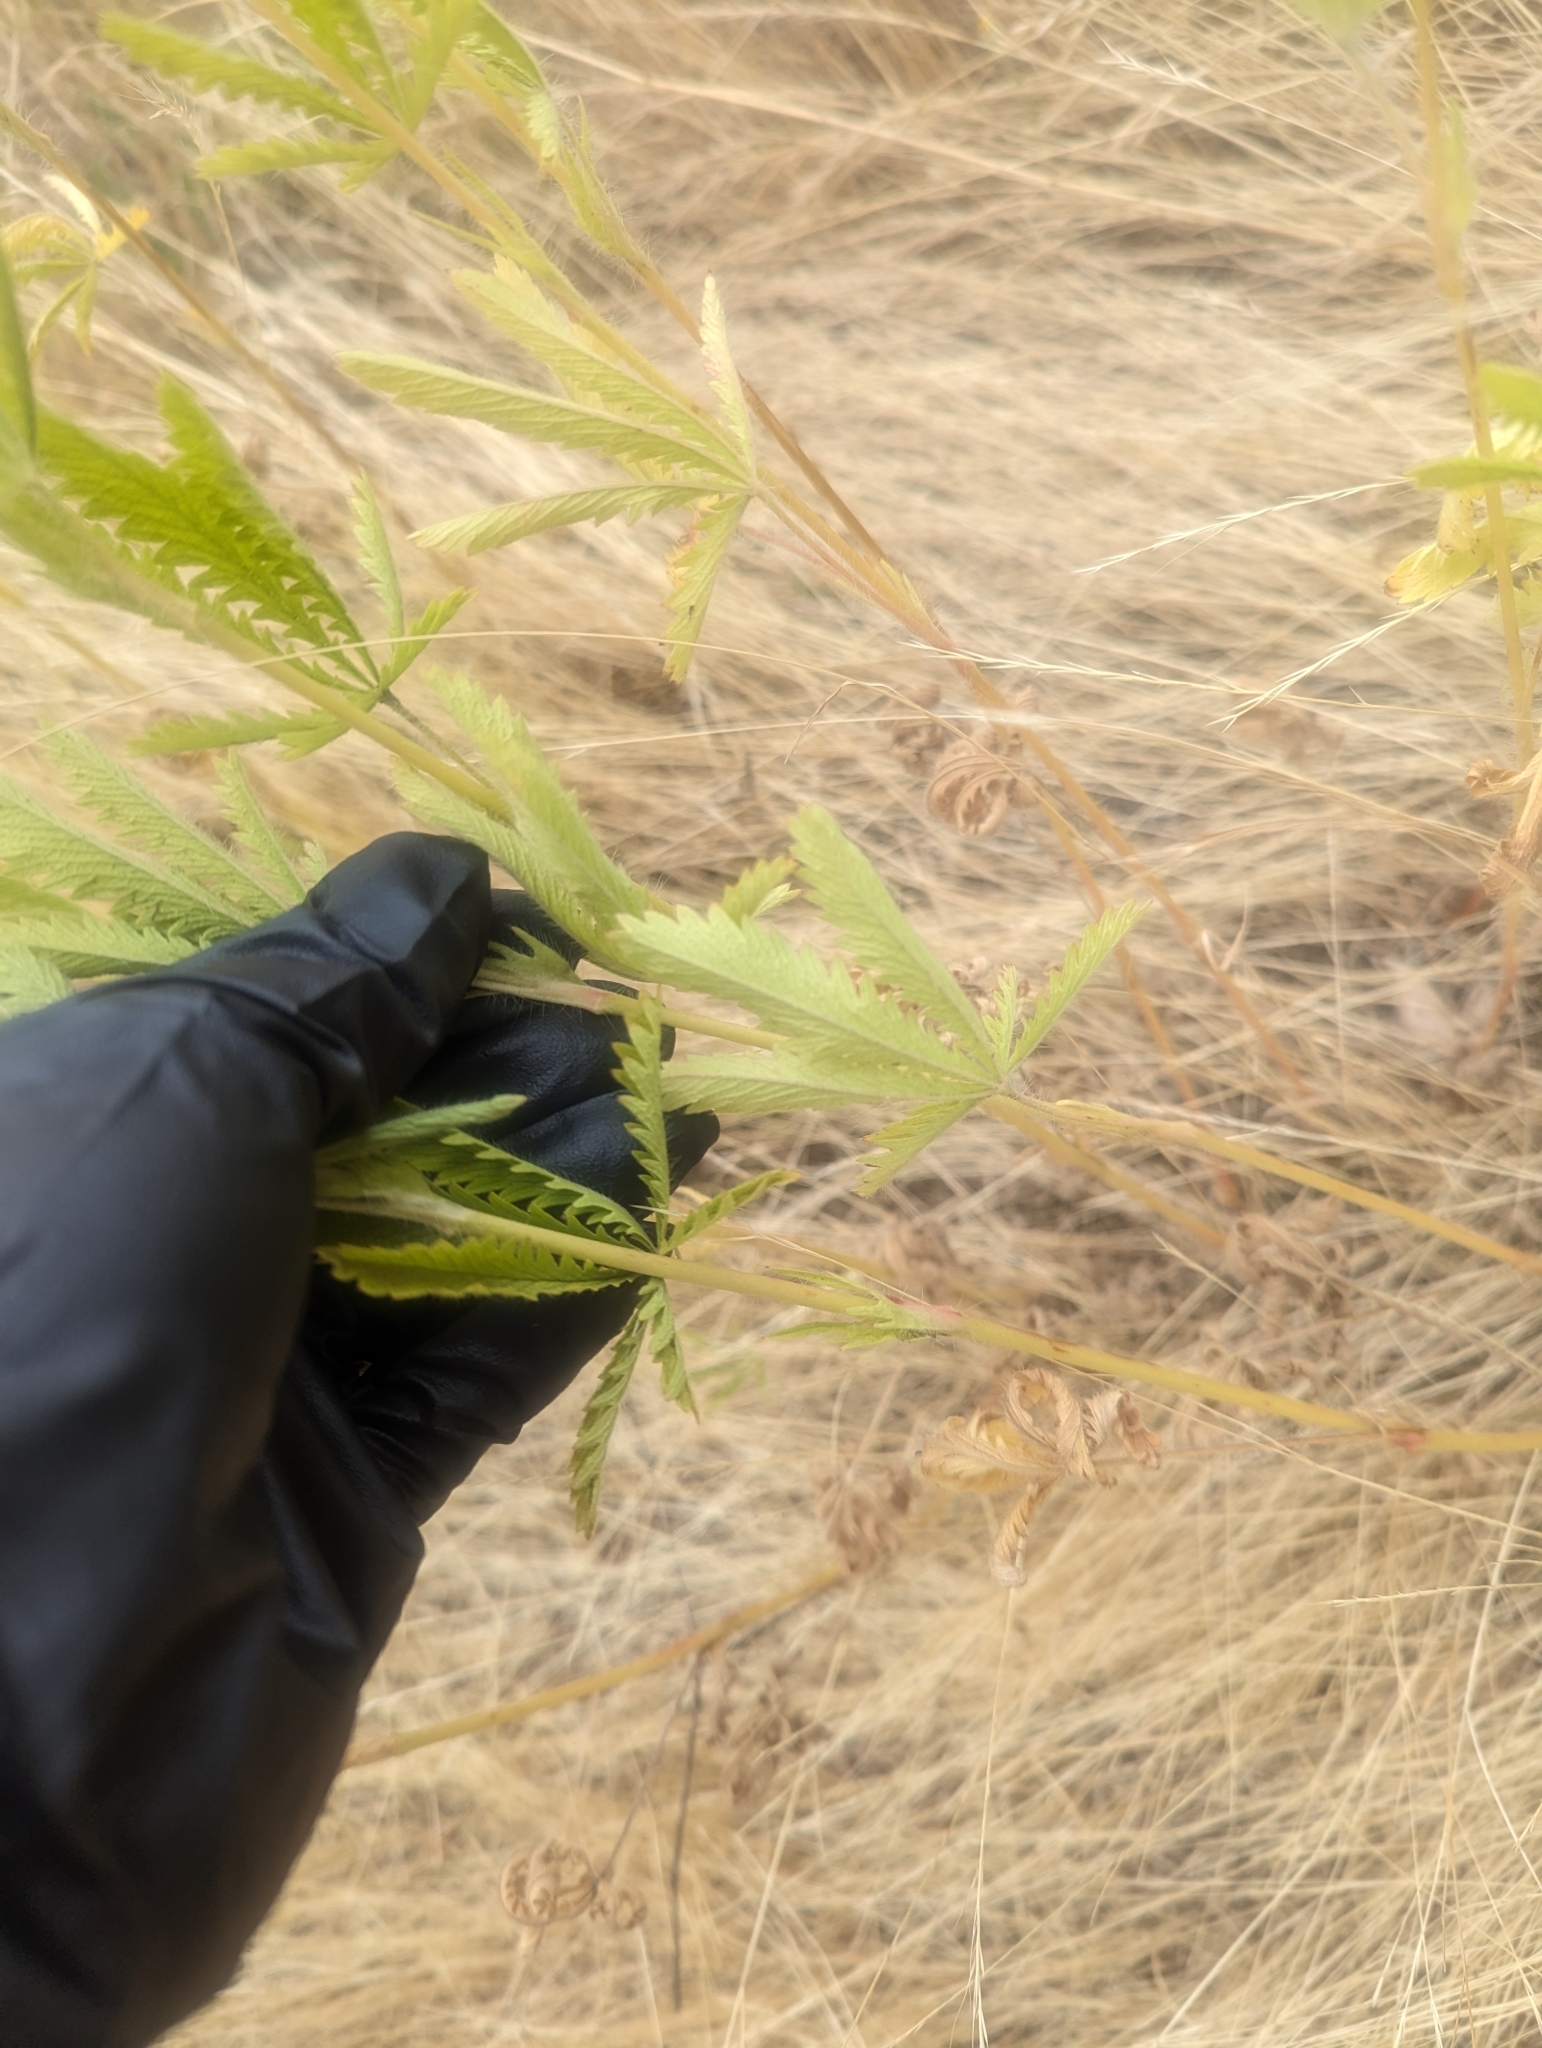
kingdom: Plantae
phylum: Tracheophyta
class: Magnoliopsida
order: Rosales
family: Rosaceae
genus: Potentilla
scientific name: Potentilla recta
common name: Sulphur cinquefoil
